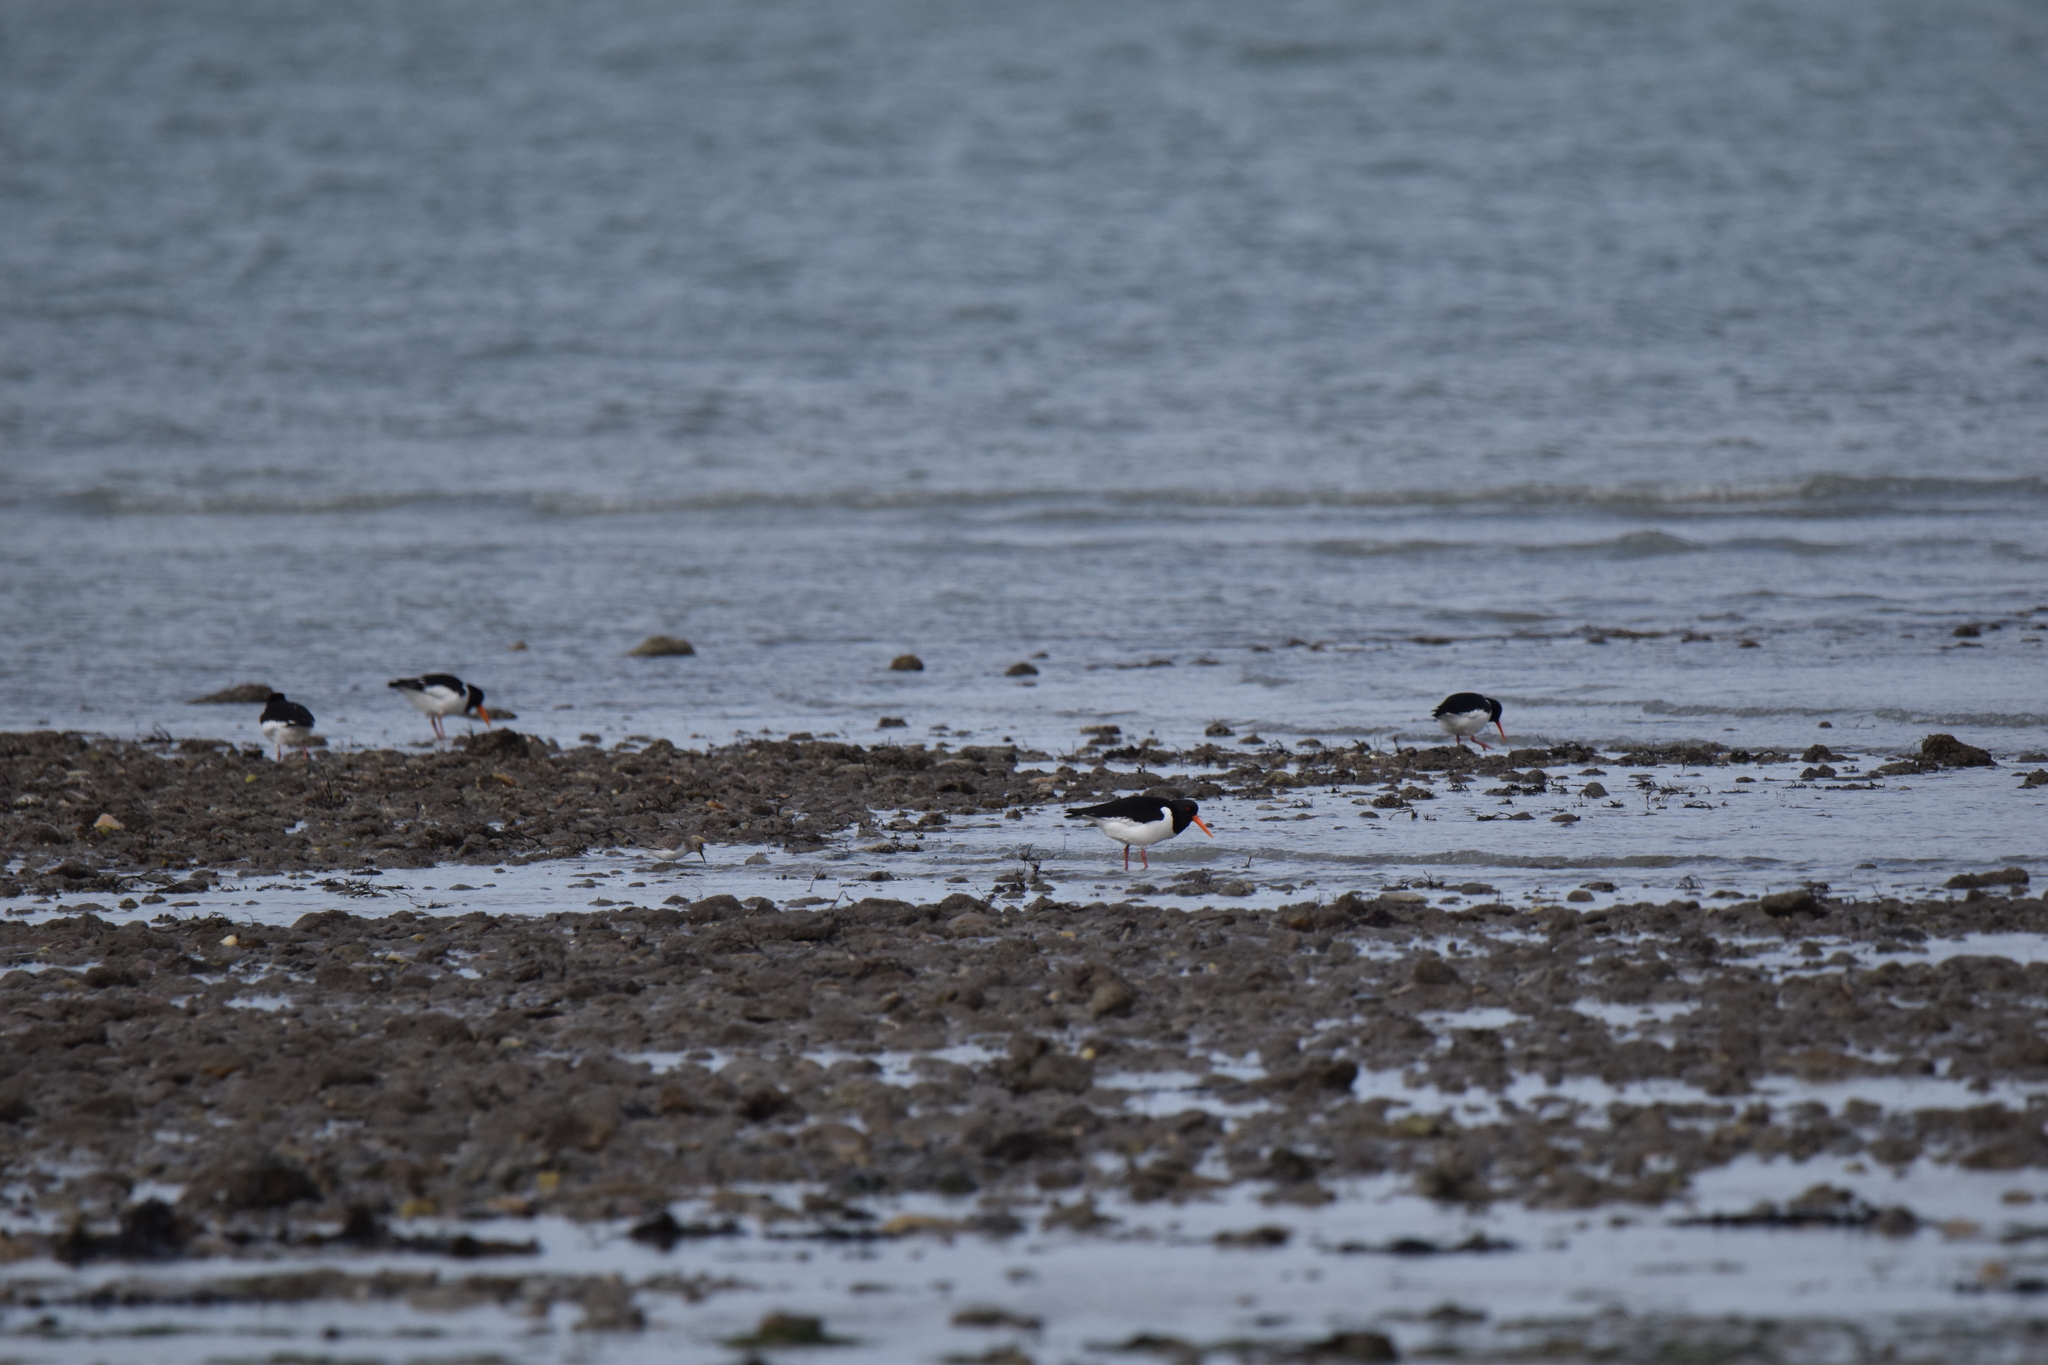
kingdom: Animalia
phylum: Chordata
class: Aves
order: Charadriiformes
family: Haematopodidae
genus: Haematopus
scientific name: Haematopus ostralegus
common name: Eurasian oystercatcher
